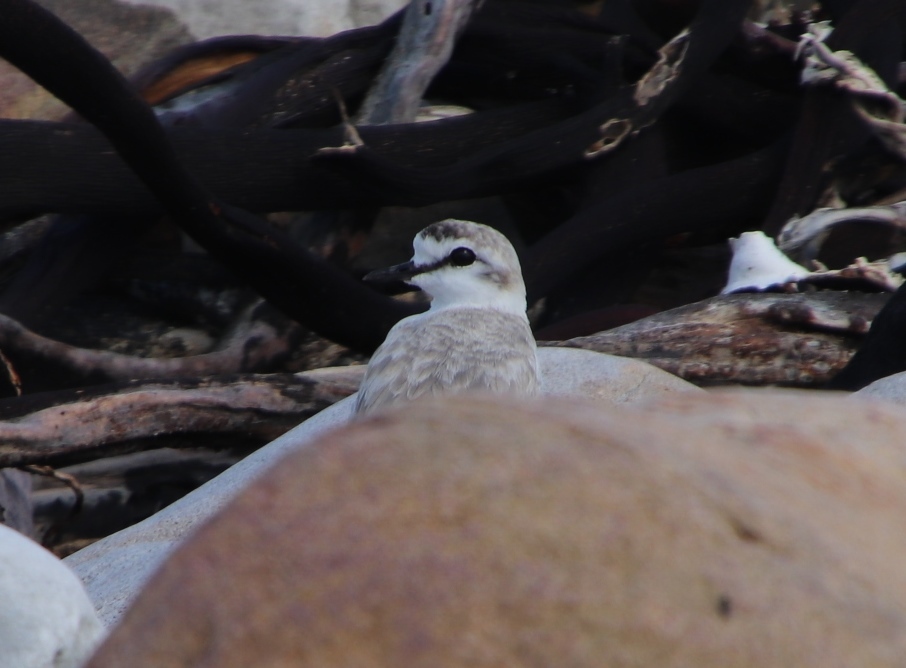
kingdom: Animalia
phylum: Chordata
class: Aves
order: Charadriiformes
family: Charadriidae
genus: Anarhynchus
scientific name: Anarhynchus
